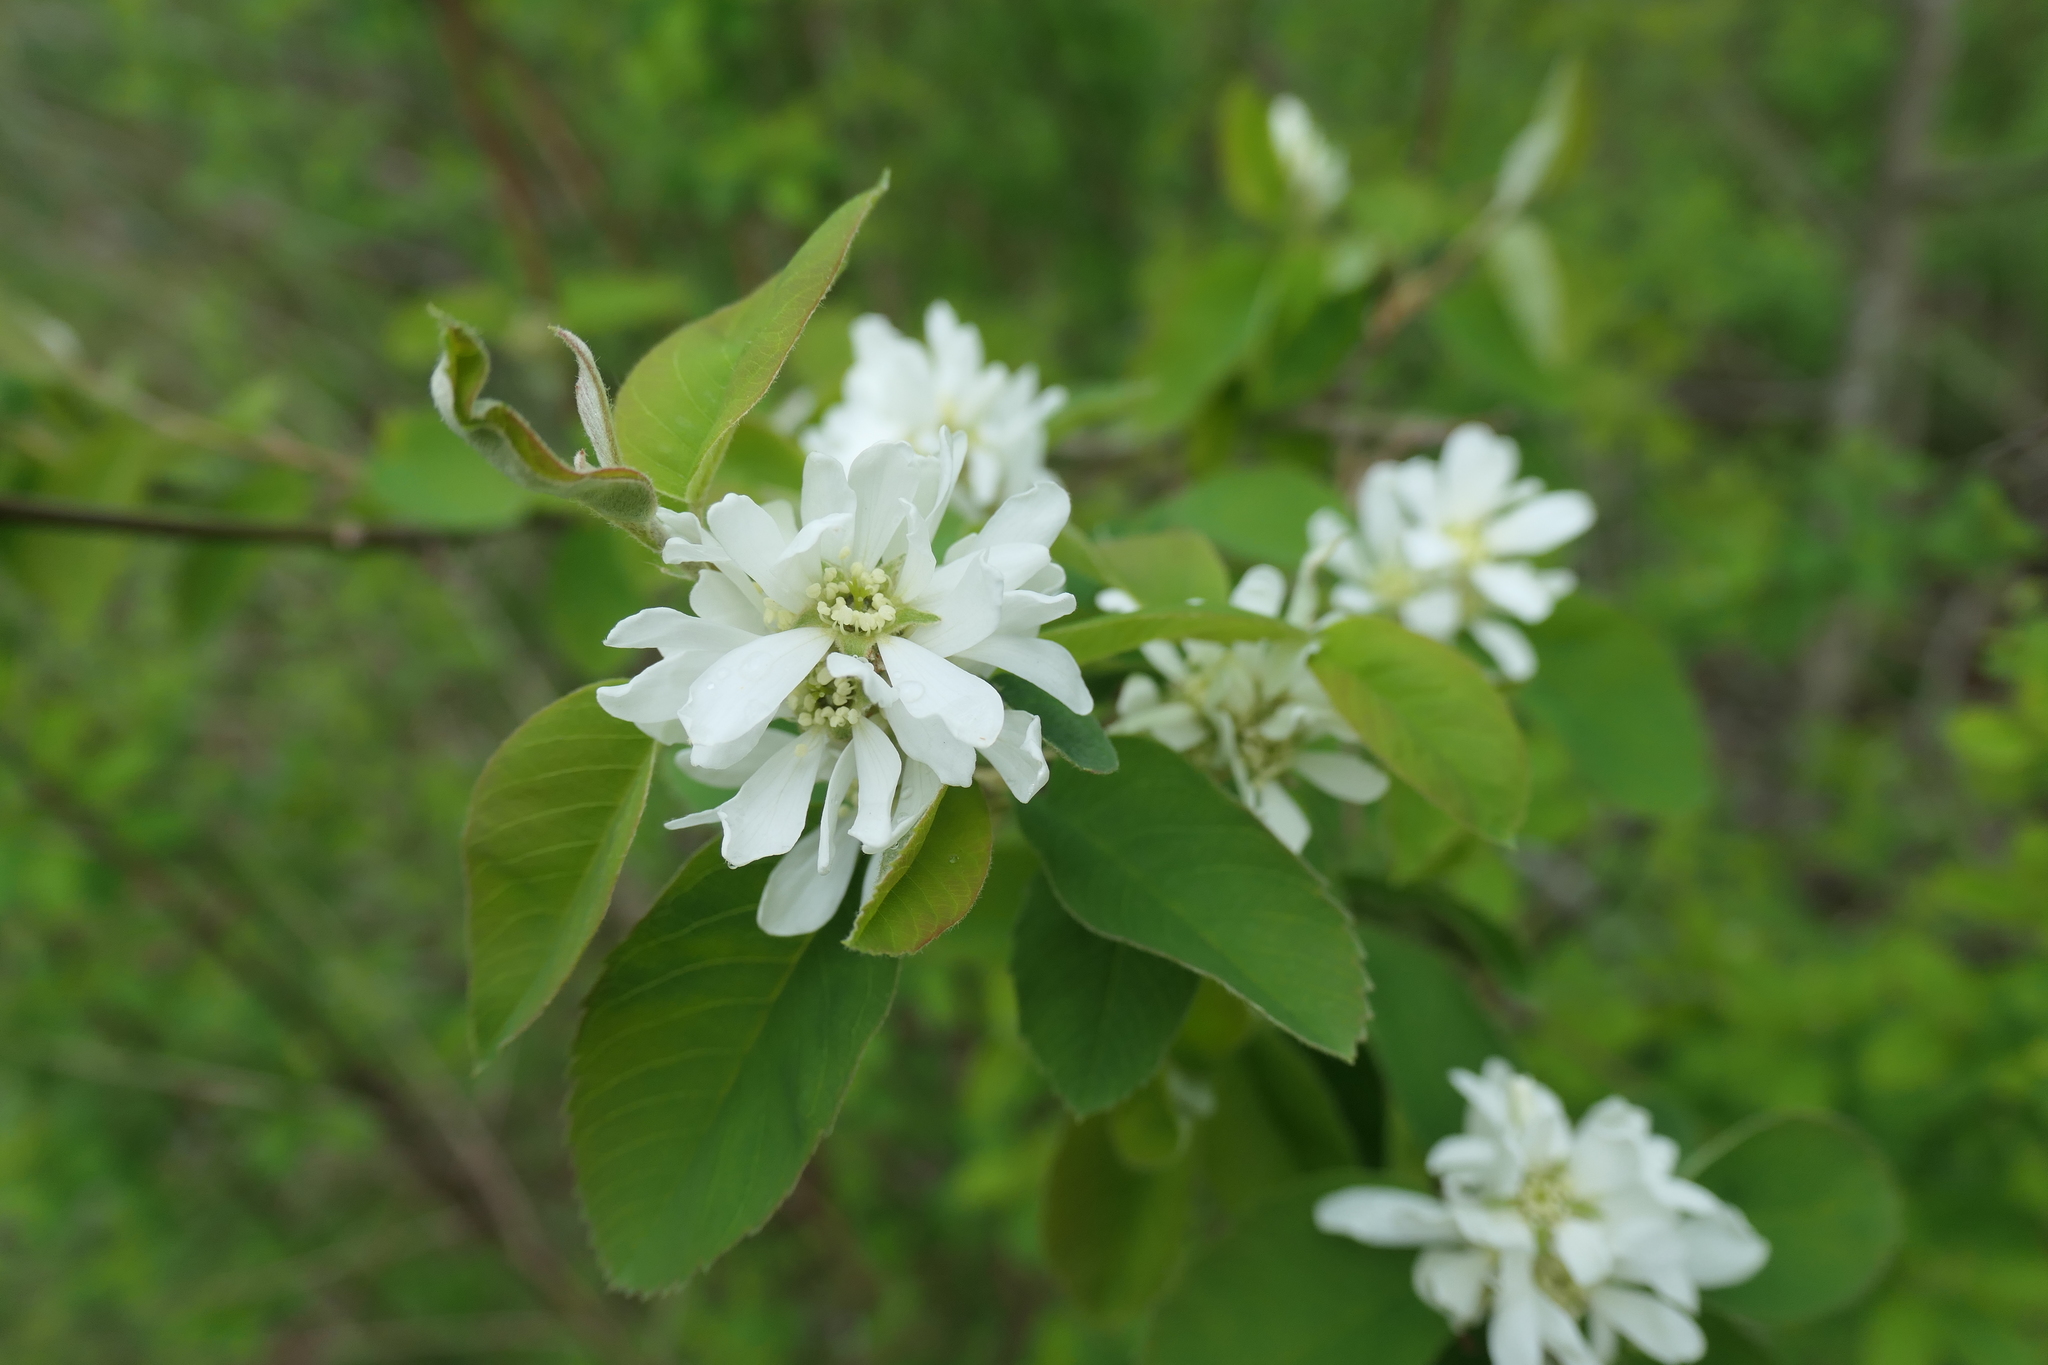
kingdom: Plantae
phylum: Tracheophyta
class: Magnoliopsida
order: Rosales
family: Rosaceae
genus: Amelanchier
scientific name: Amelanchier alnifolia
